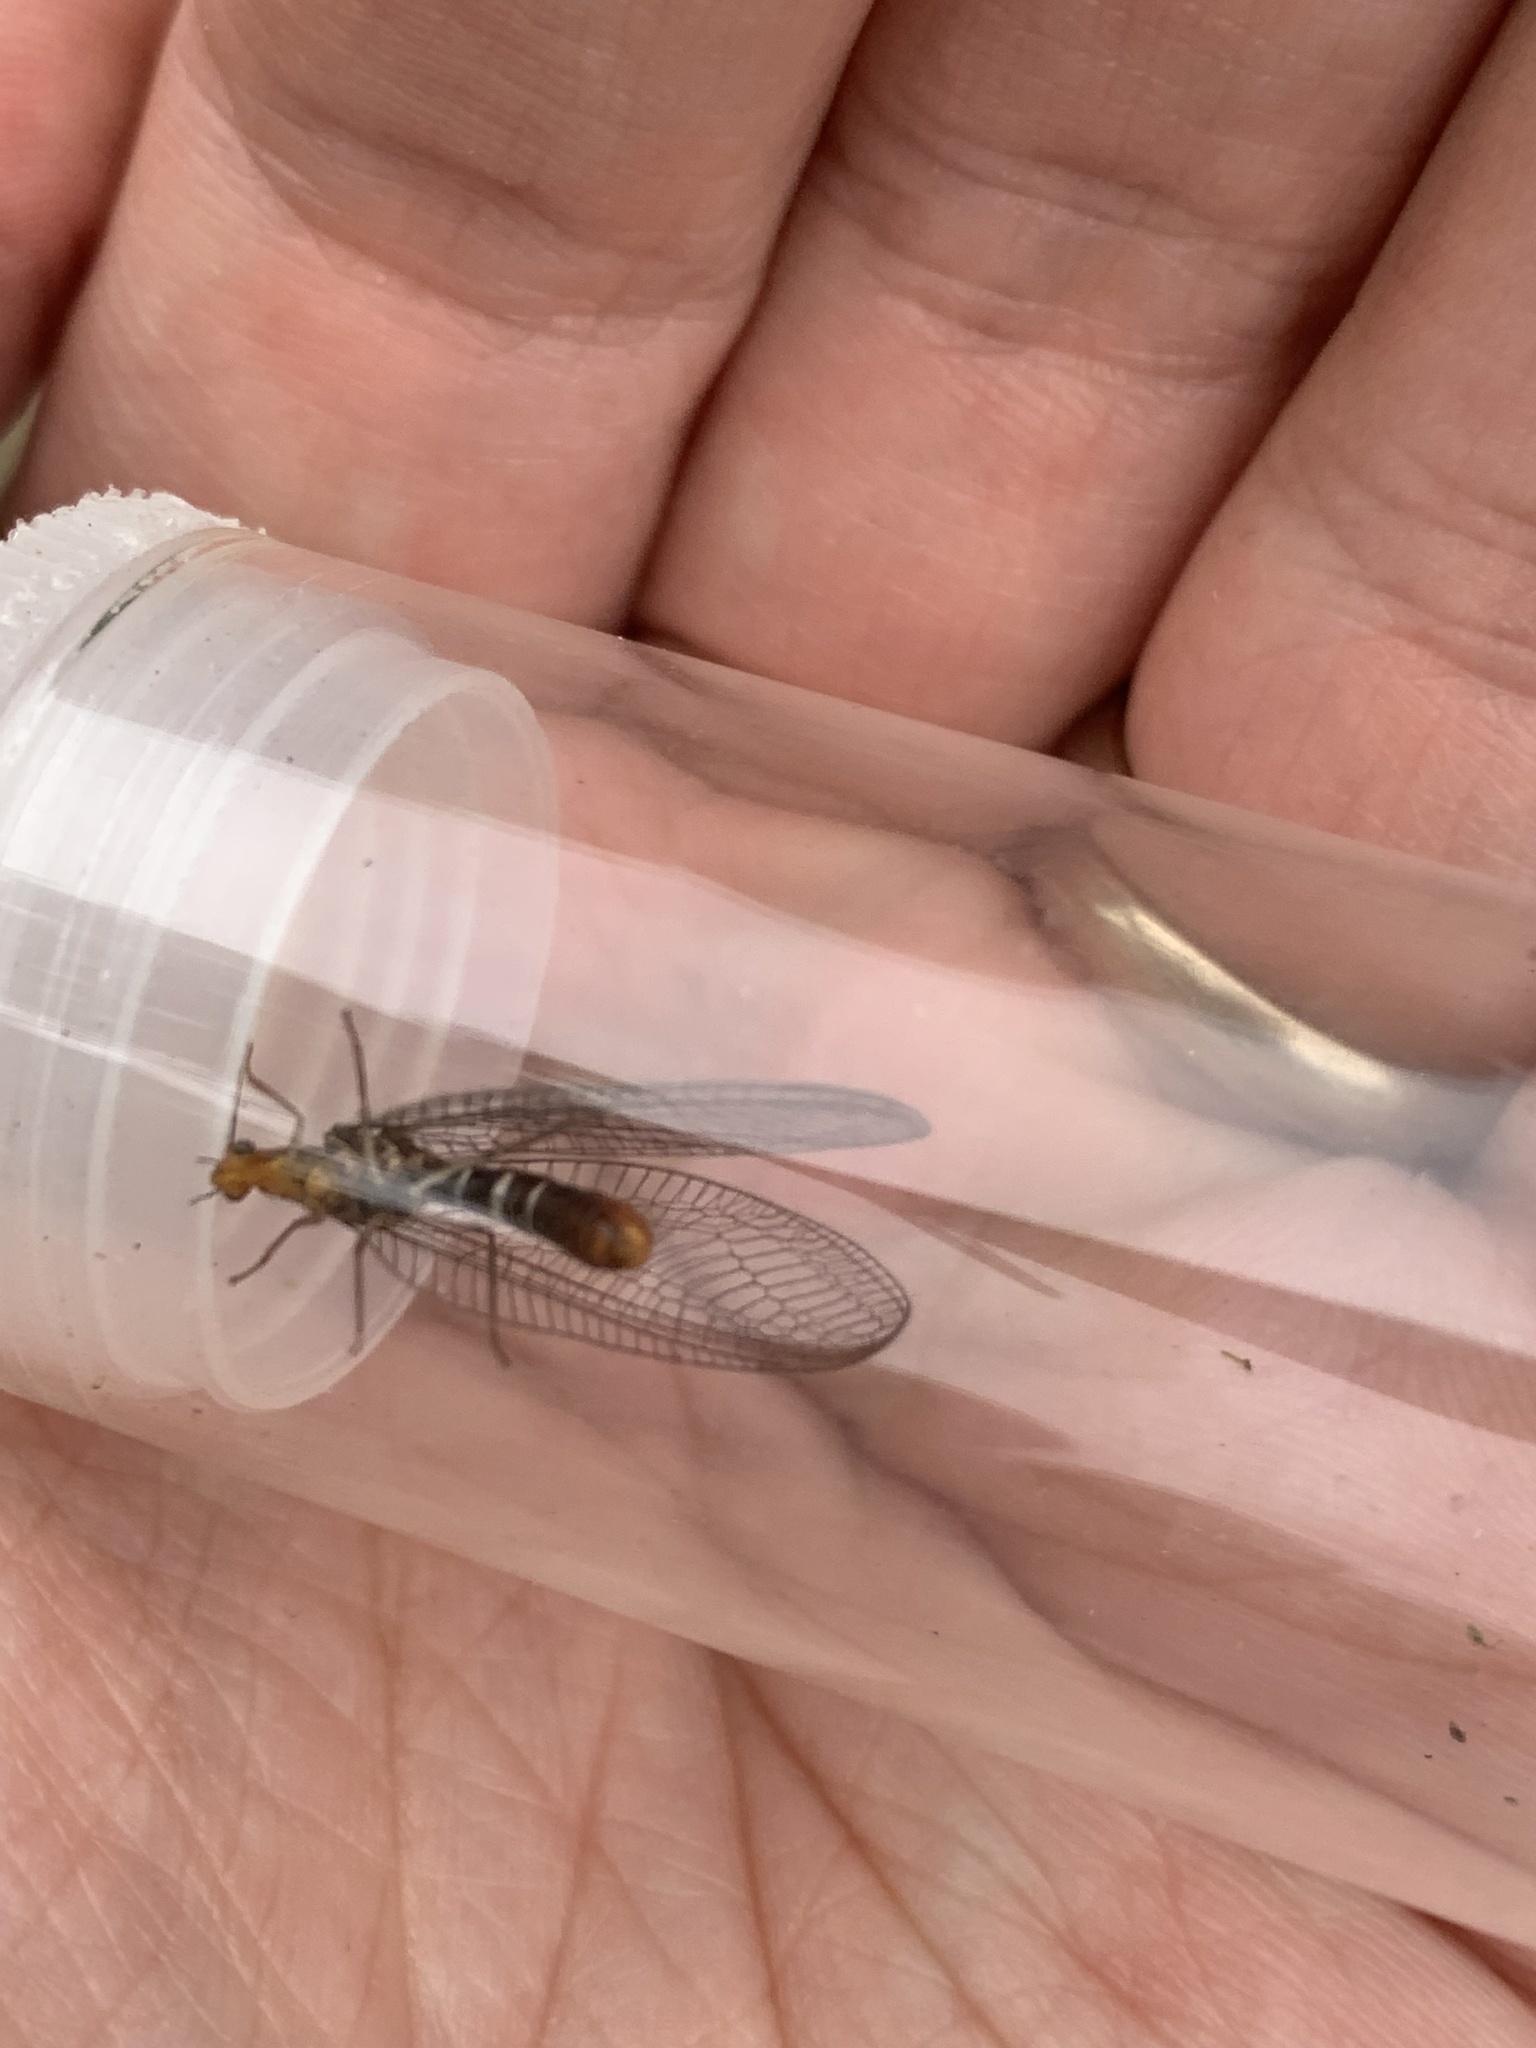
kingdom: Animalia
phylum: Arthropoda
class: Insecta
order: Neuroptera
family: Chrysopidae
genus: Nothochrysa
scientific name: Nothochrysa capitata
